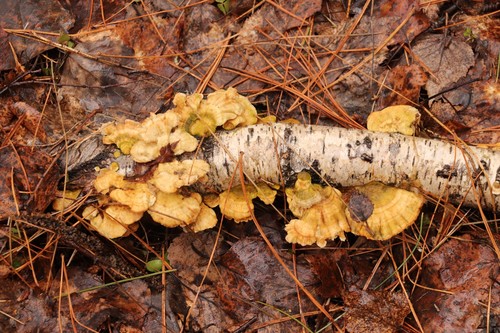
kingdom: Fungi
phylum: Basidiomycota
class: Agaricomycetes
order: Polyporales
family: Polyporaceae
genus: Trametes
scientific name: Trametes ochracea
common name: Ochre bracket
